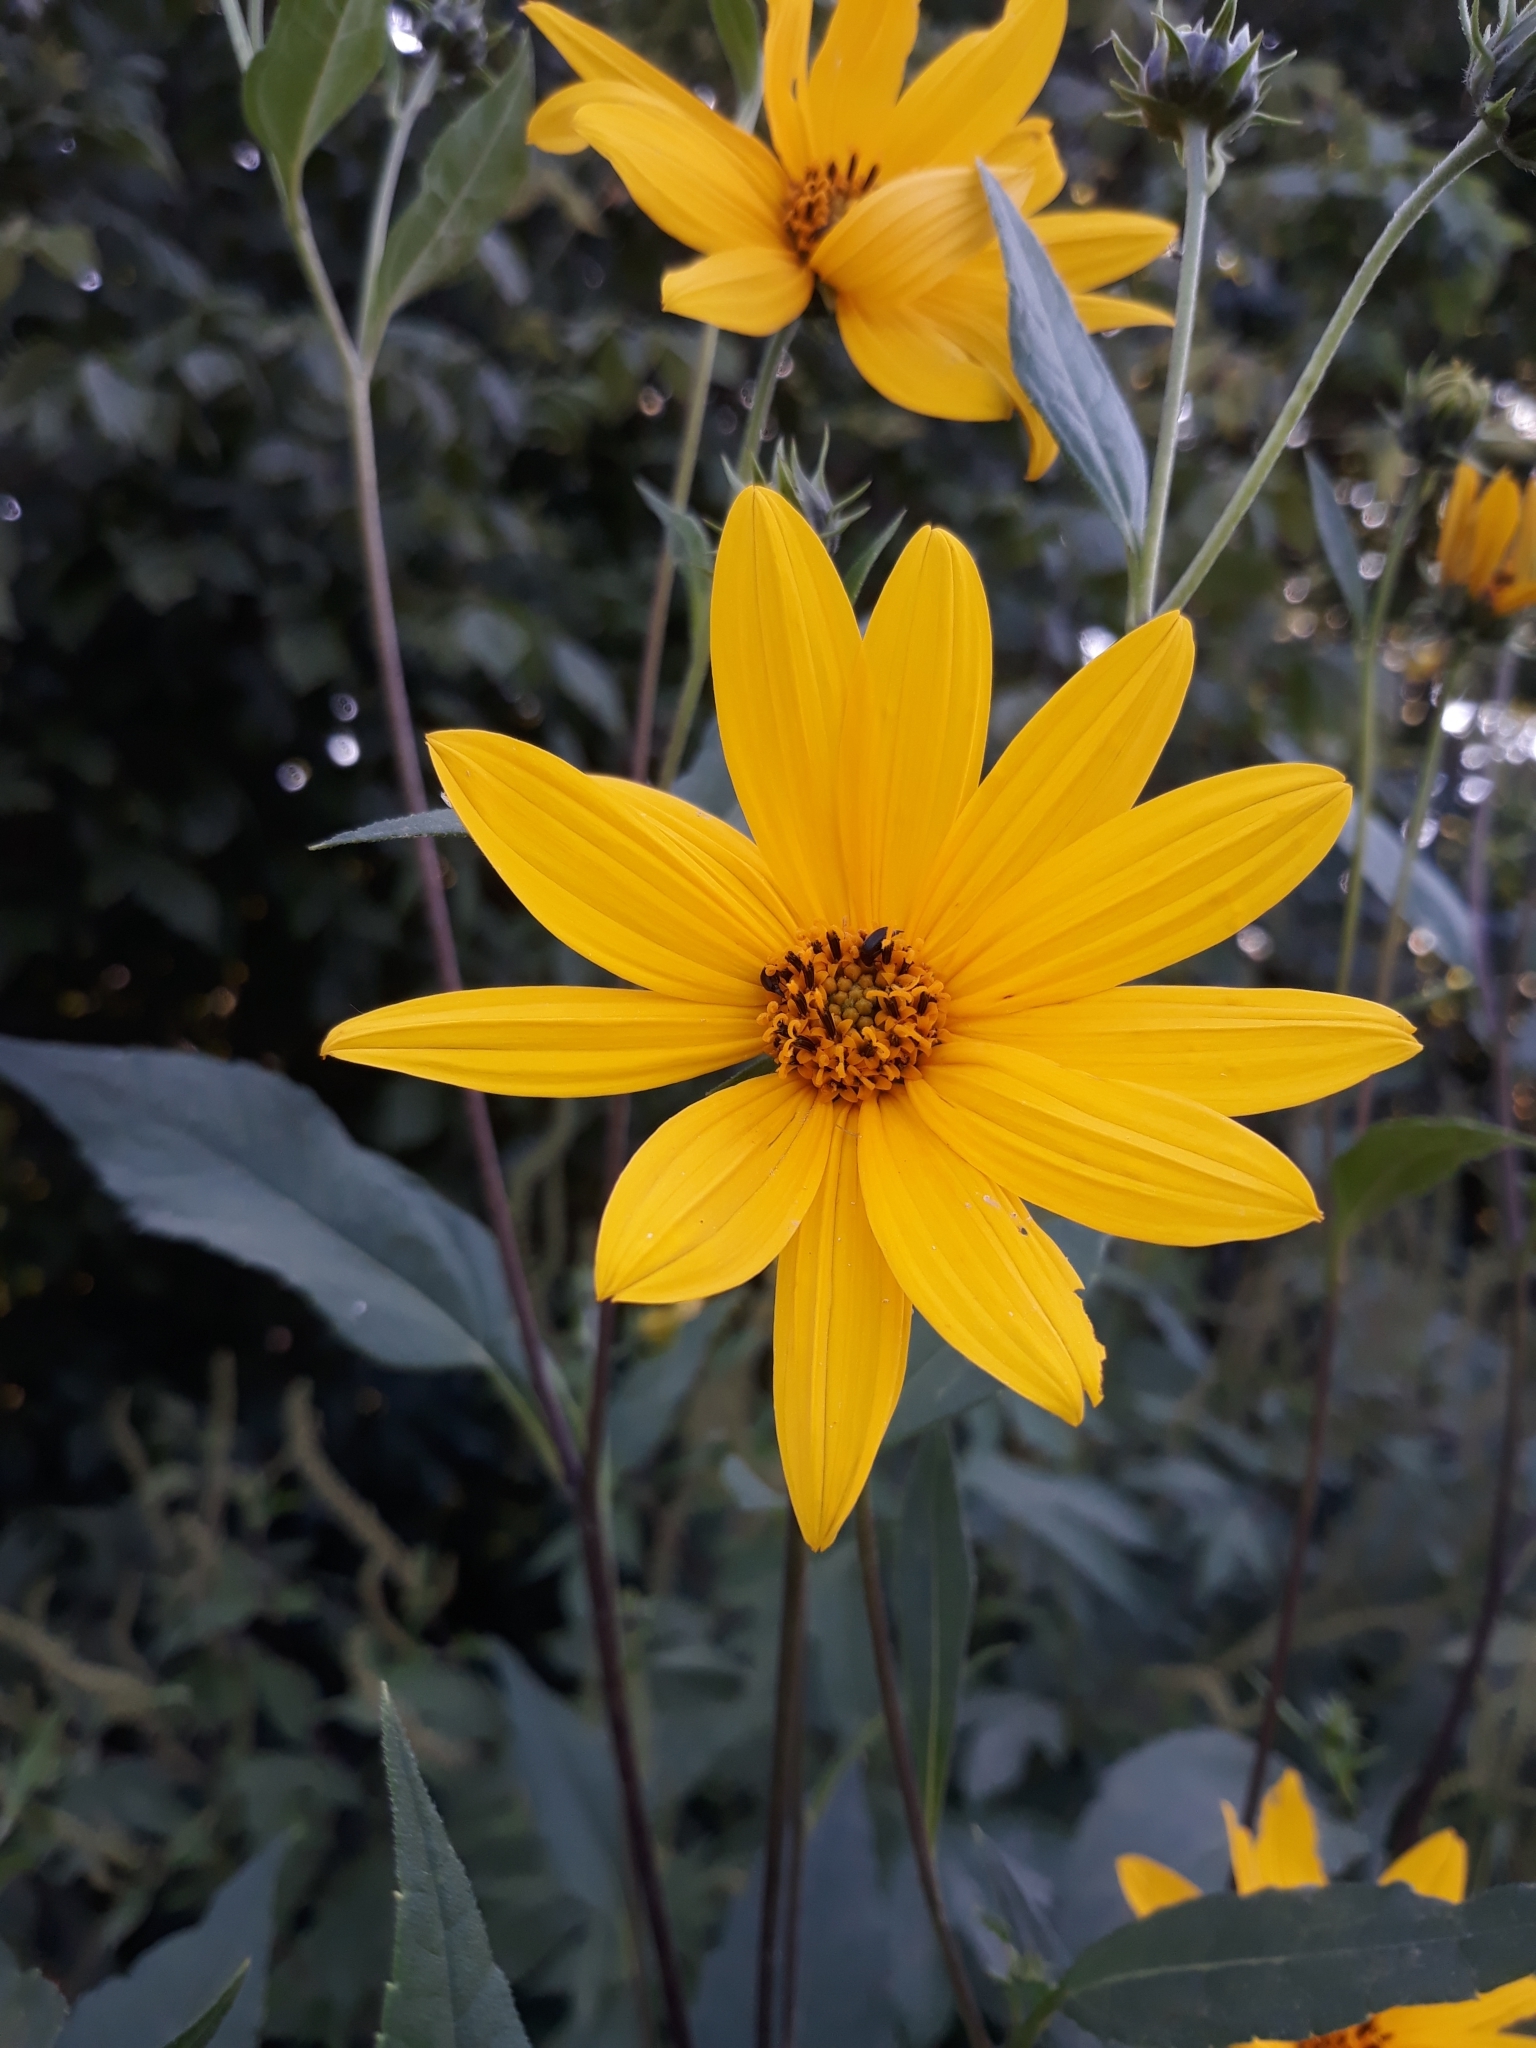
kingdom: Plantae
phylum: Tracheophyta
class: Magnoliopsida
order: Asterales
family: Asteraceae
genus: Helianthus
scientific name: Helianthus tuberosus
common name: Jerusalem artichoke
